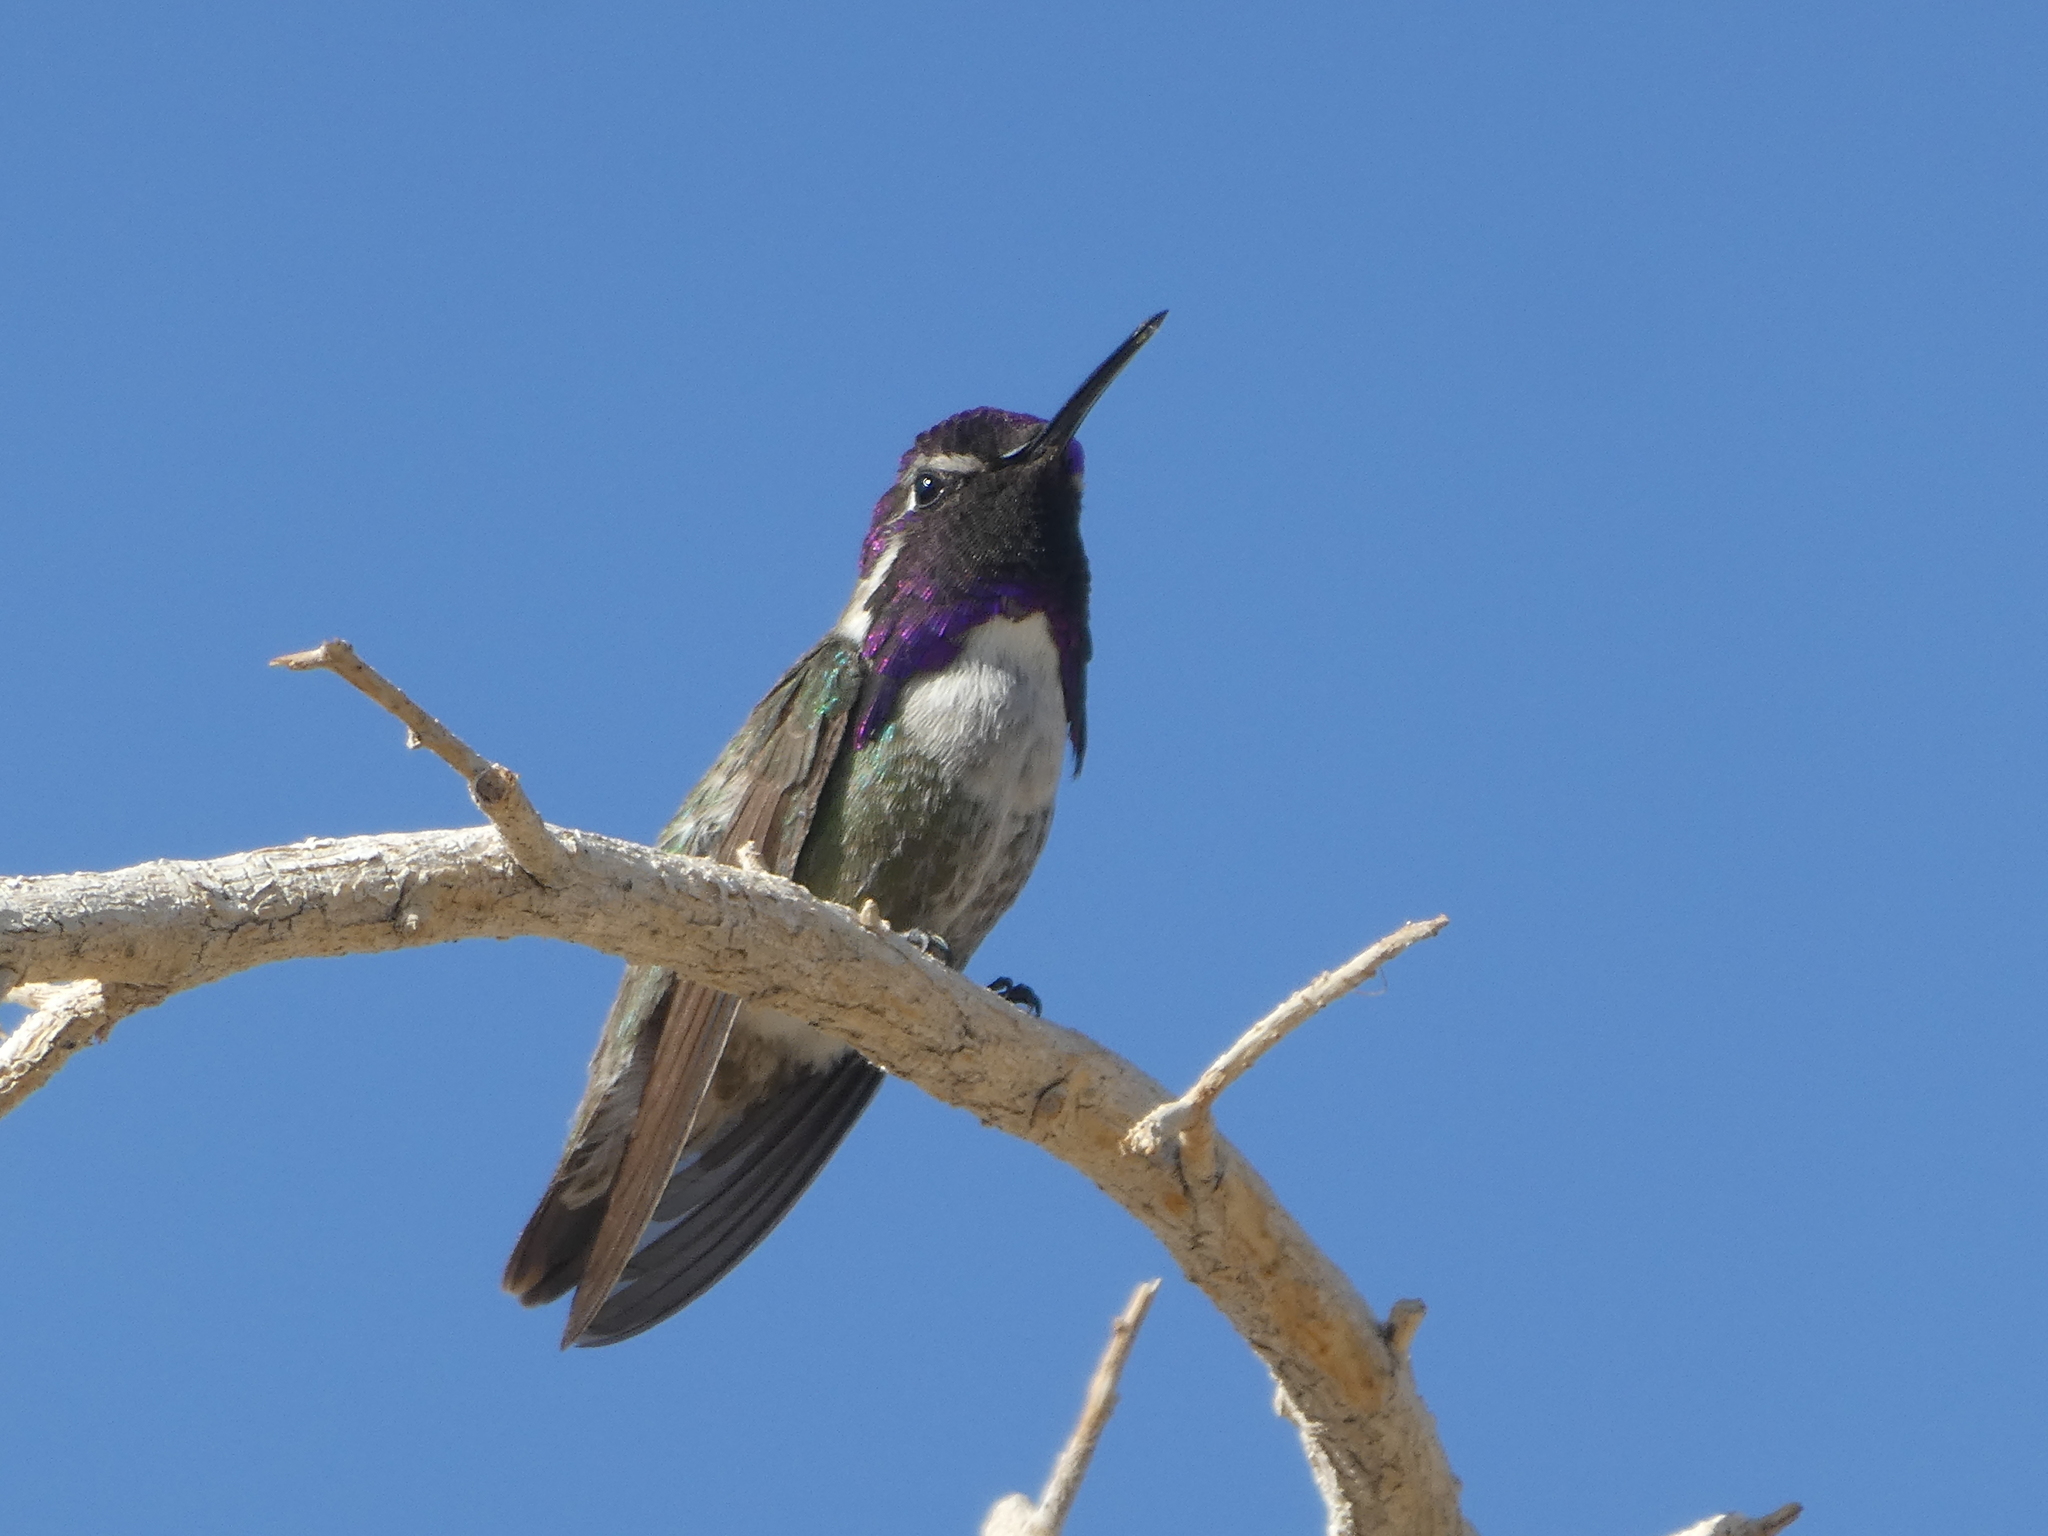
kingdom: Animalia
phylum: Chordata
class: Aves
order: Apodiformes
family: Trochilidae
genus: Calypte
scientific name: Calypte costae
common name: Costa's hummingbird
